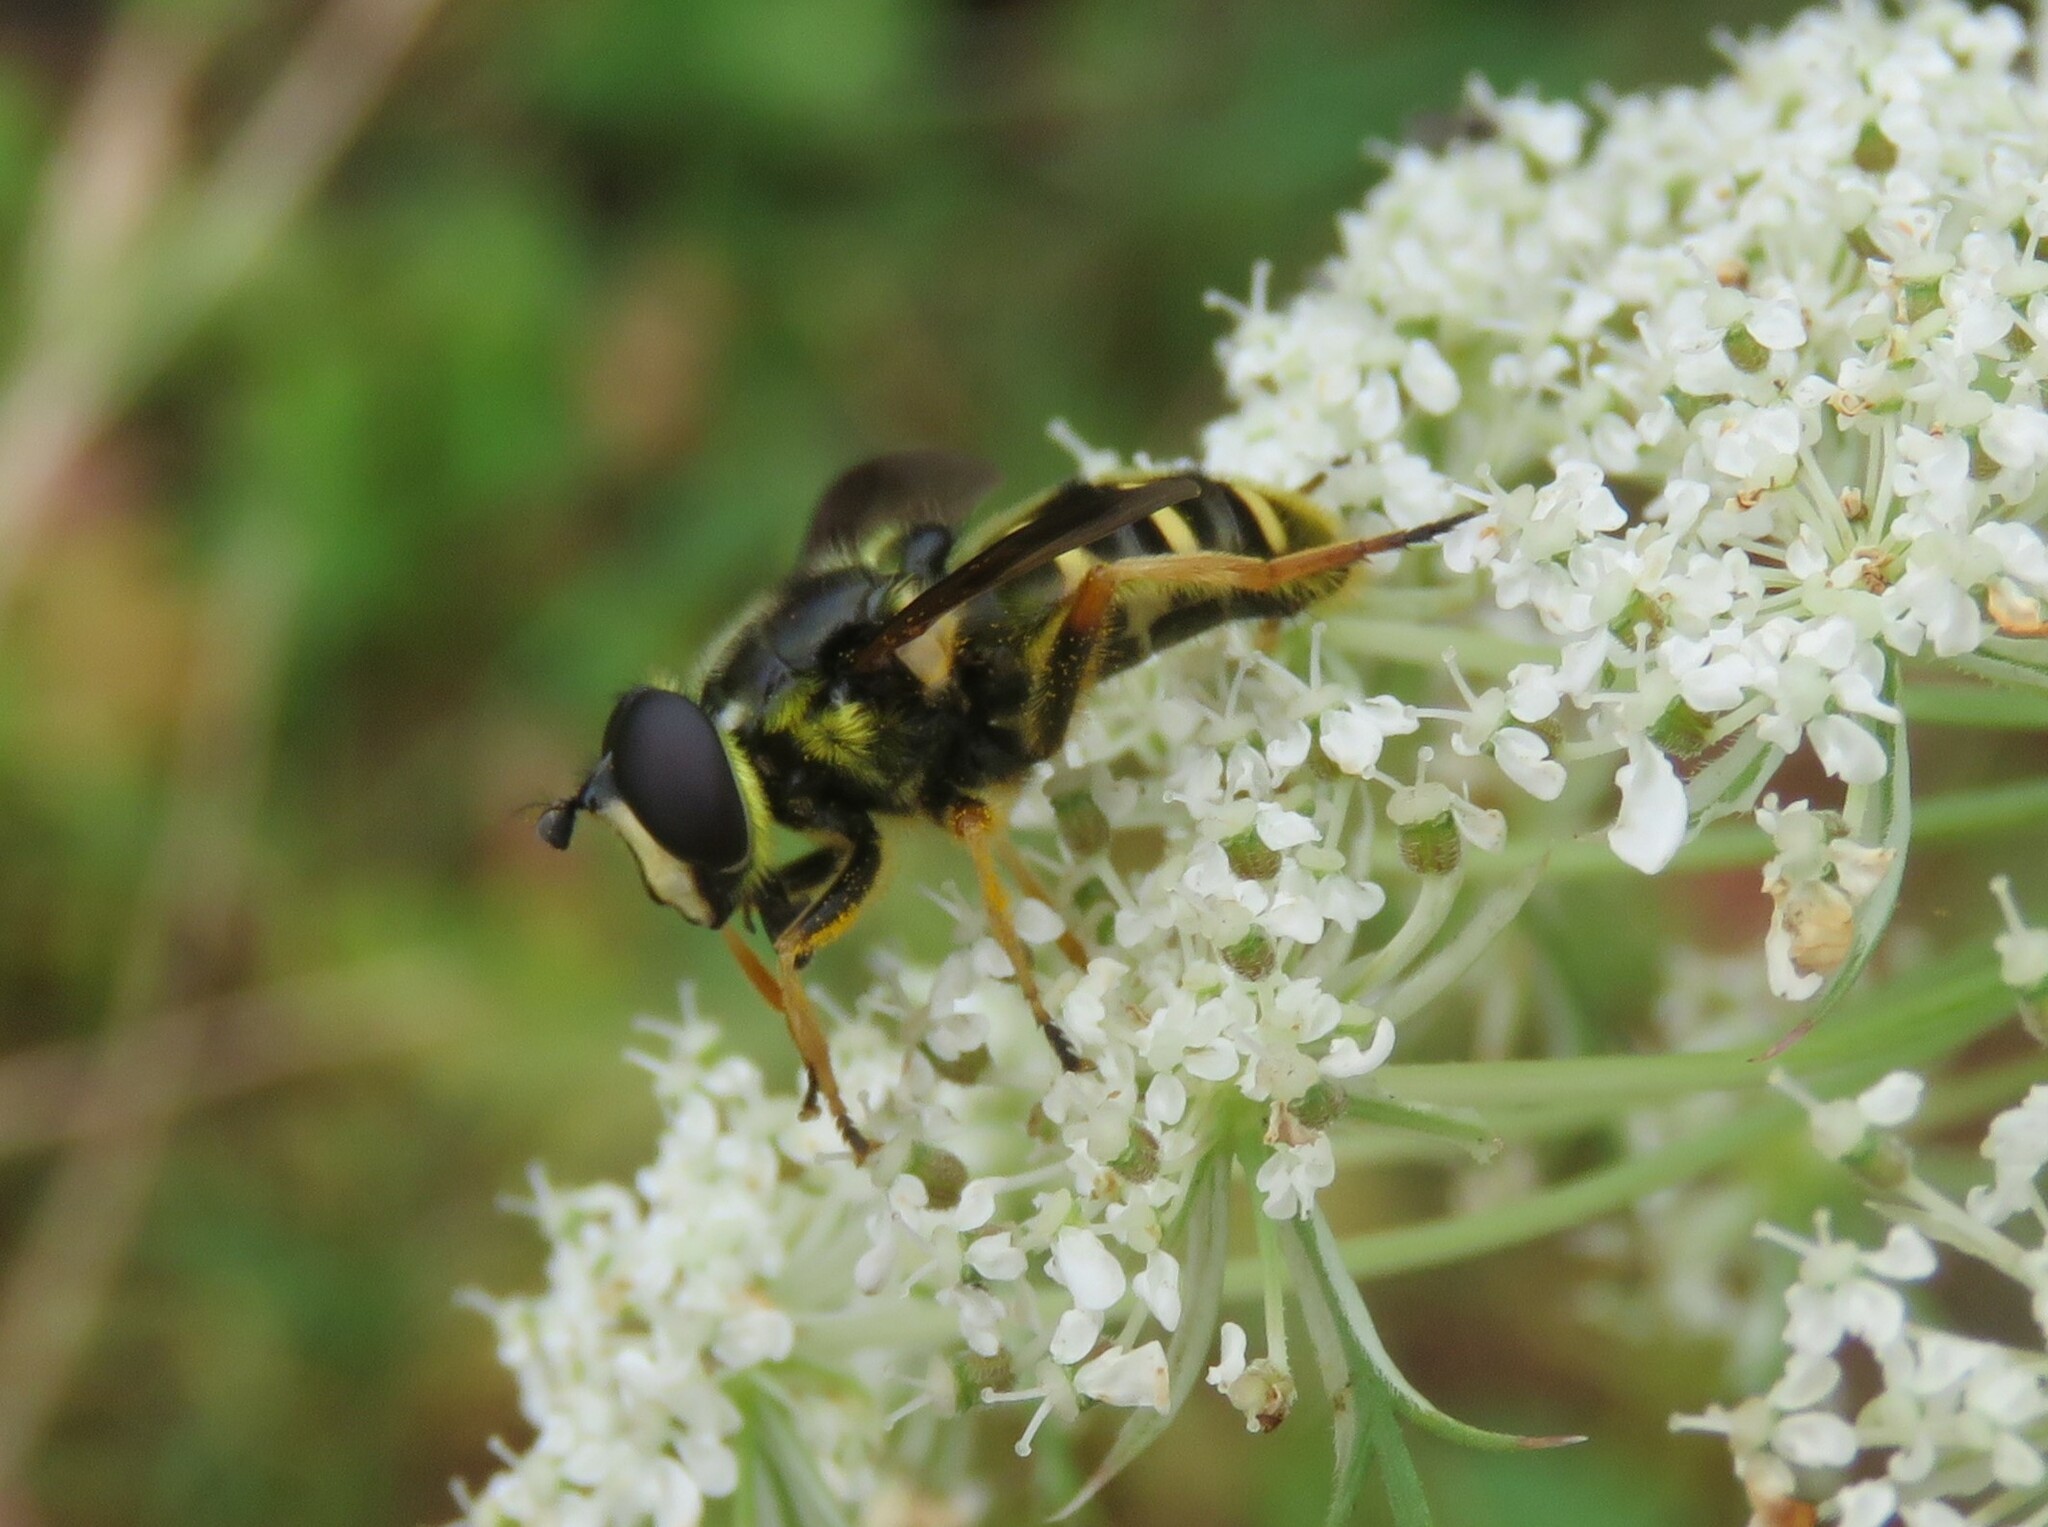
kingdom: Animalia
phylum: Arthropoda
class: Insecta
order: Diptera
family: Syrphidae
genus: Sericomyia
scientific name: Sericomyia chrysotoxoides
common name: Oblique-banded pond fly
